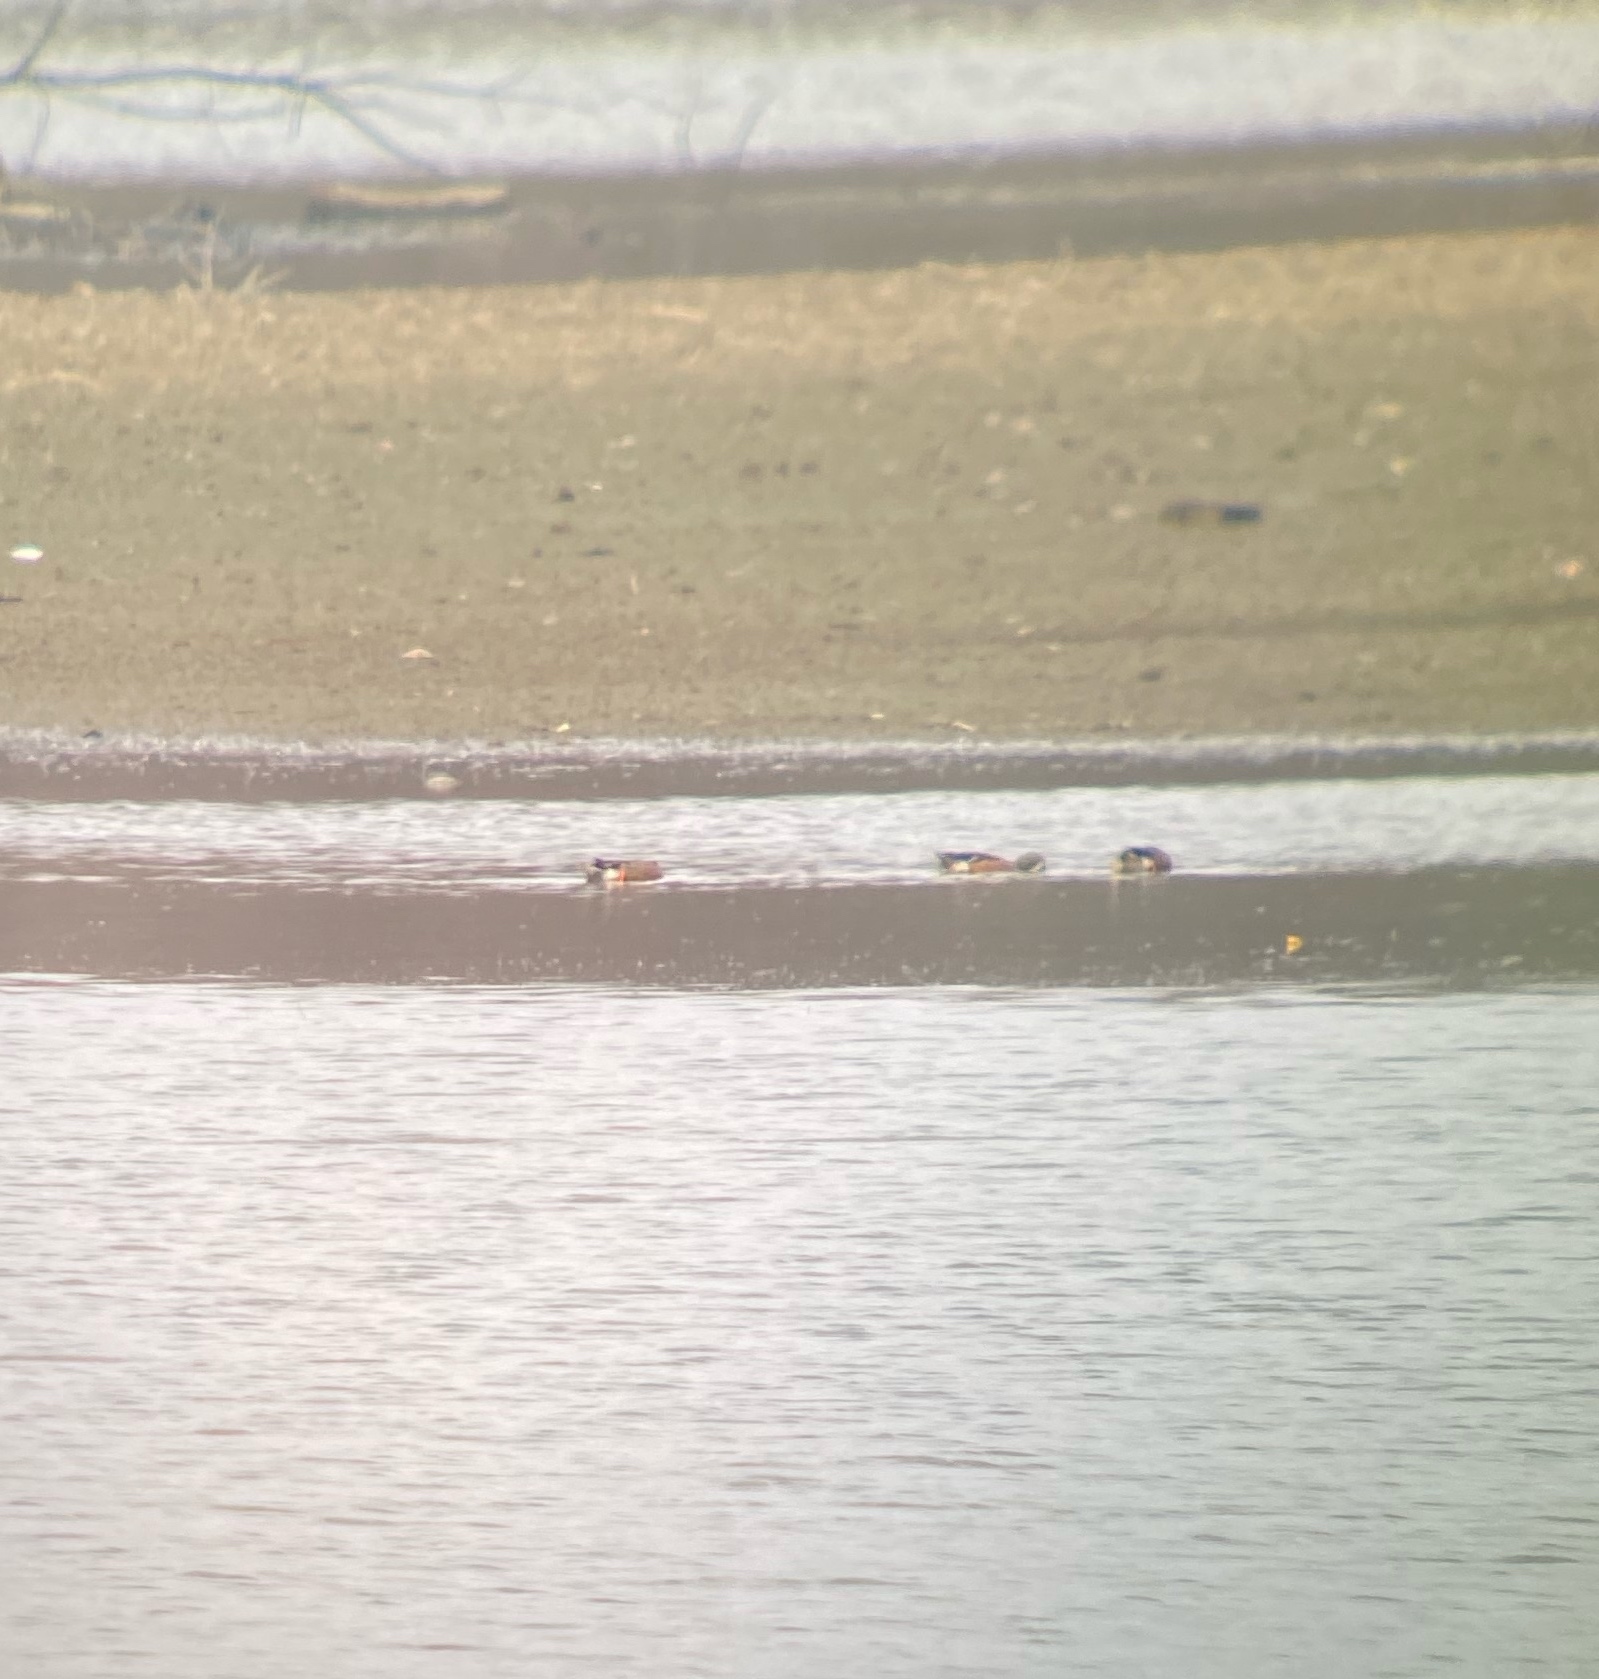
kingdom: Animalia
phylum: Chordata
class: Aves
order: Anseriformes
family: Anatidae
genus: Spatula
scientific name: Spatula discors
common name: Blue-winged teal
